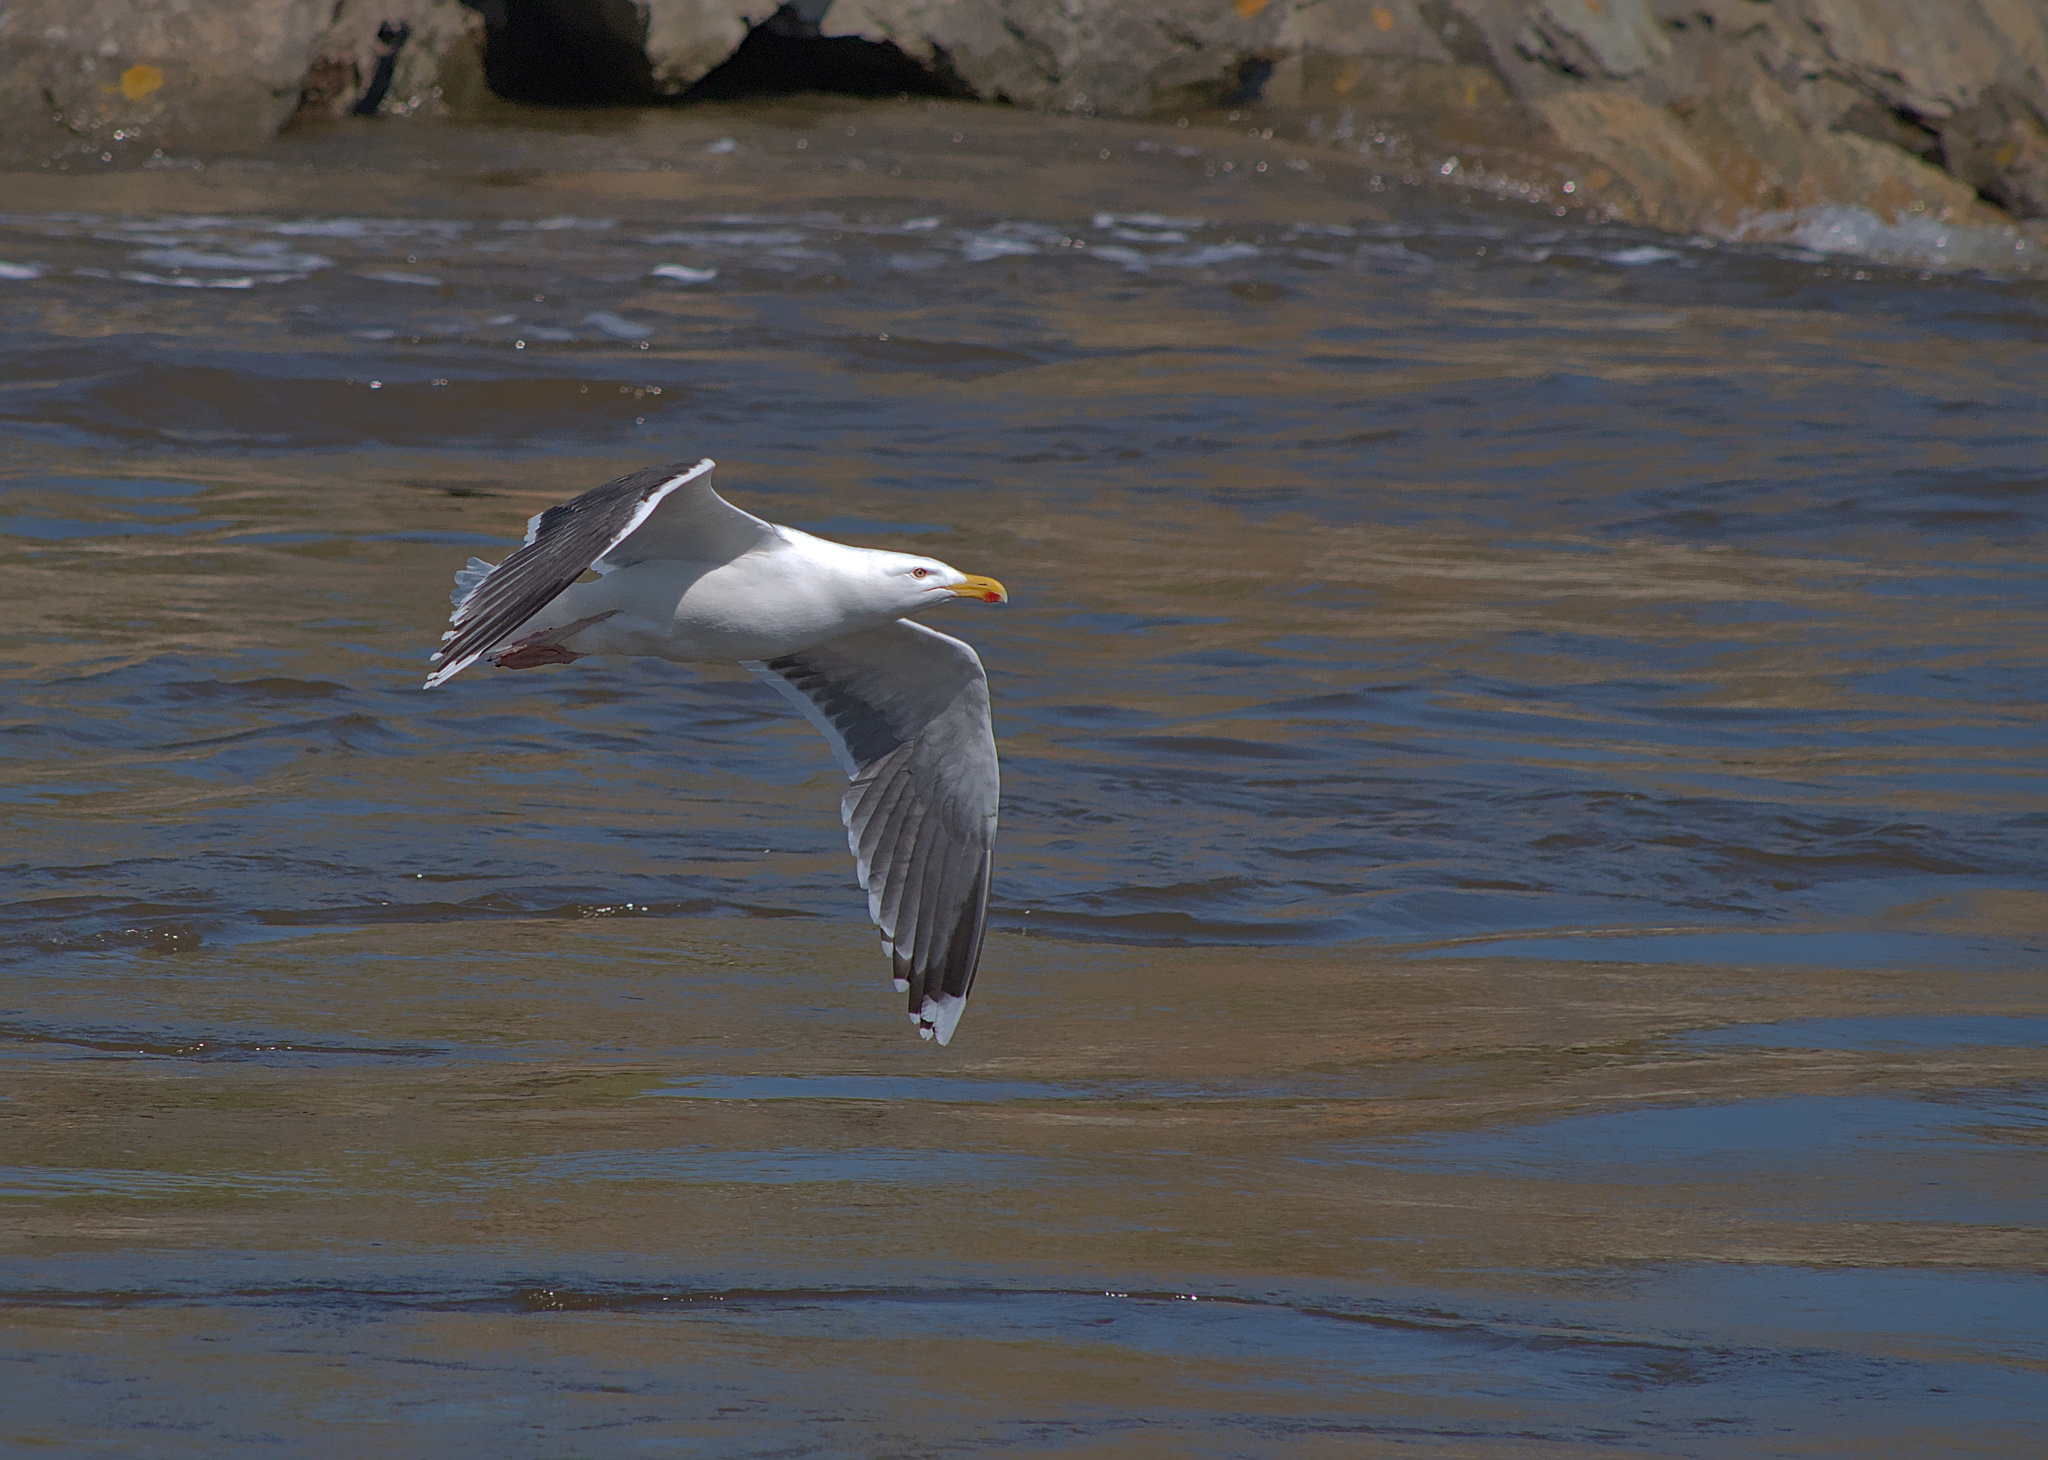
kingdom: Animalia
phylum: Chordata
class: Aves
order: Charadriiformes
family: Laridae
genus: Larus
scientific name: Larus marinus
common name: Great black-backed gull
